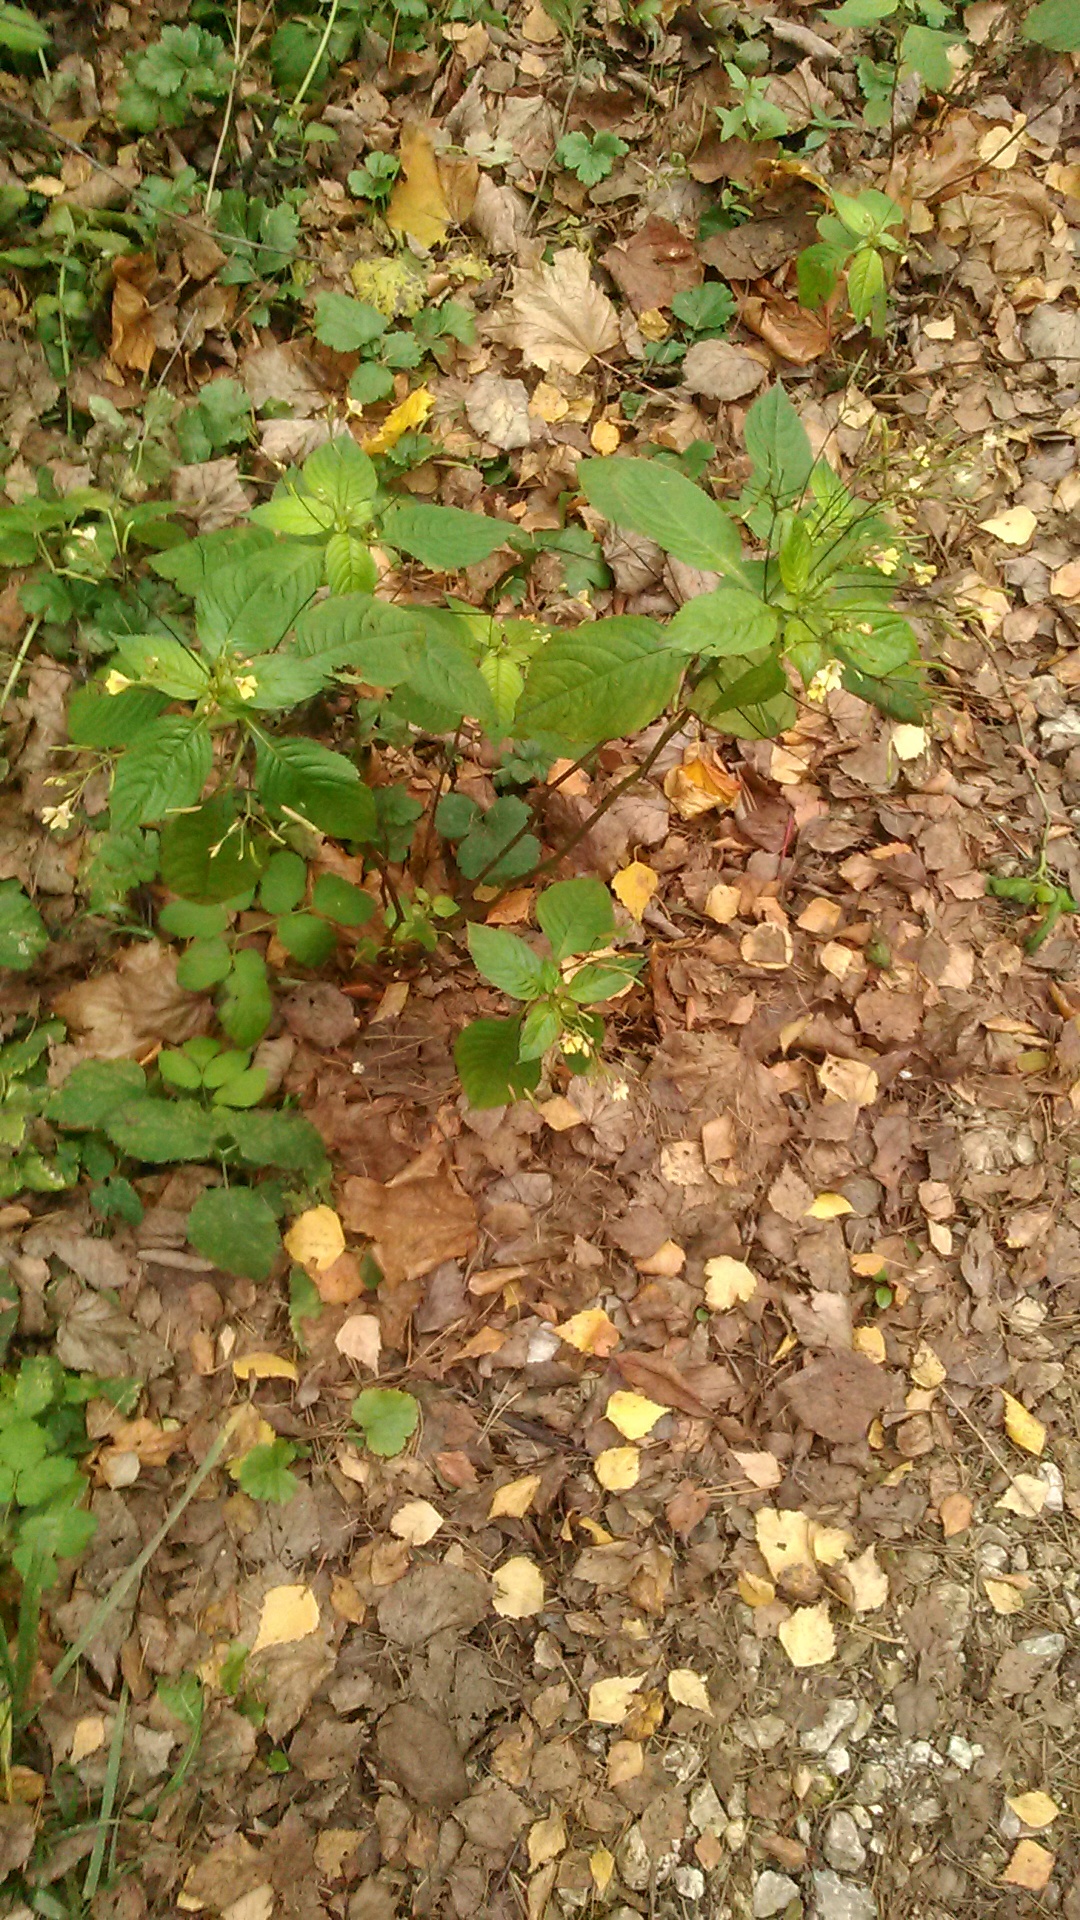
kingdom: Plantae
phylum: Tracheophyta
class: Magnoliopsida
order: Ericales
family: Balsaminaceae
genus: Impatiens
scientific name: Impatiens parviflora
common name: Small balsam
